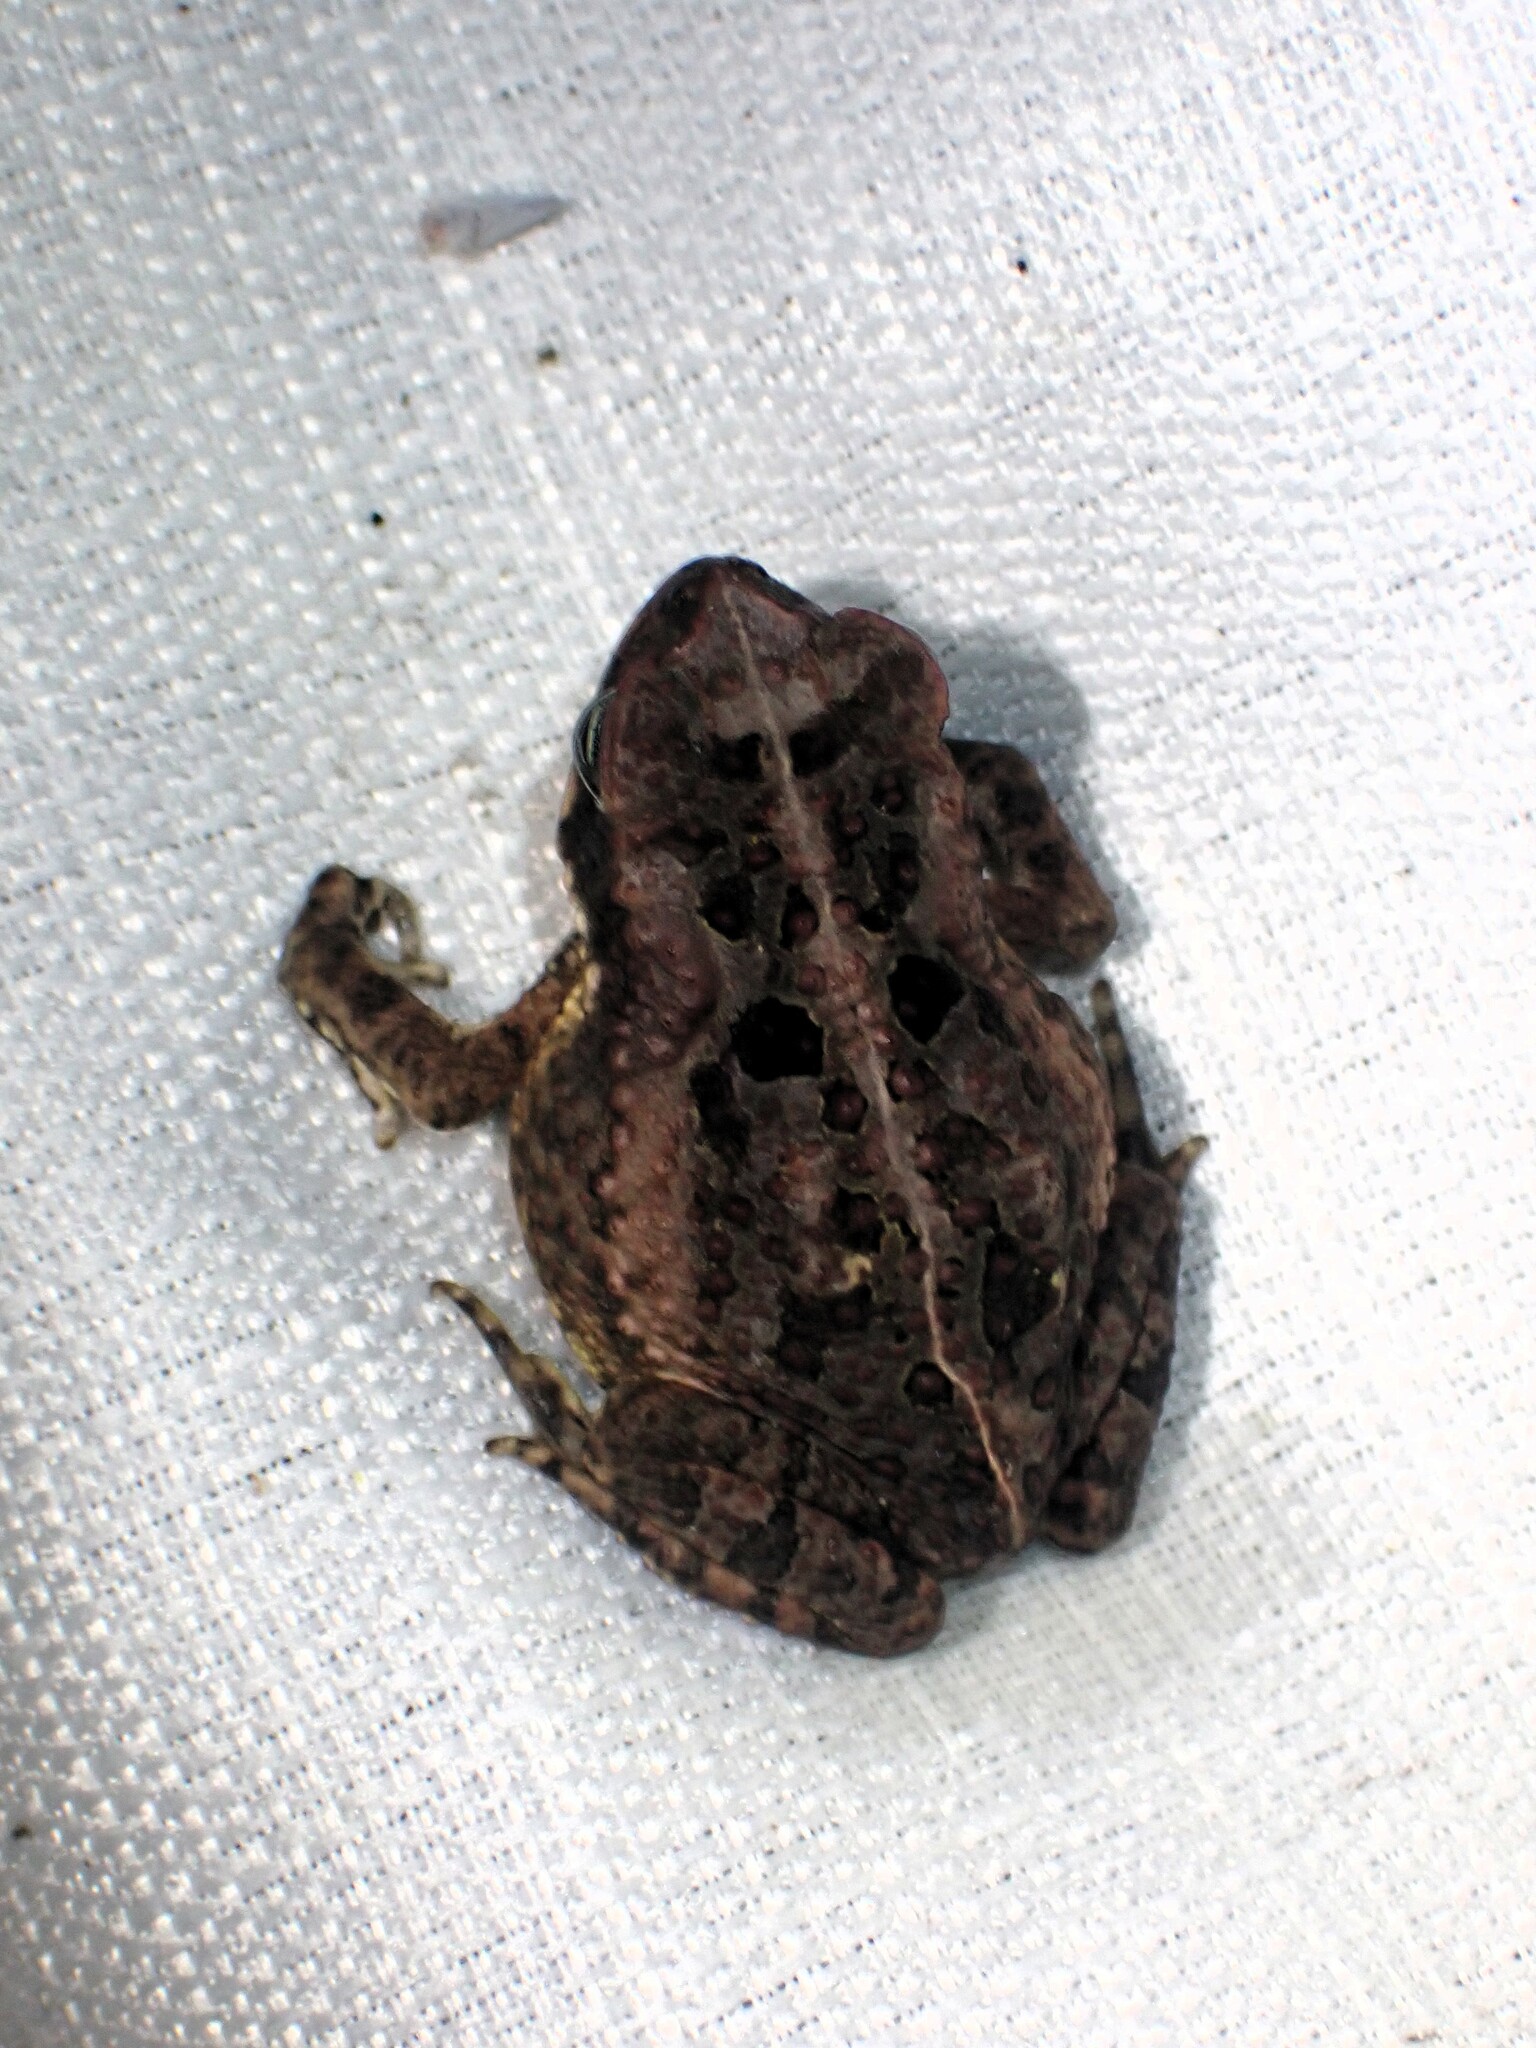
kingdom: Animalia
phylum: Chordata
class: Amphibia
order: Anura
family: Bufonidae
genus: Rhinella
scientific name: Rhinella marina
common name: Cane toad
